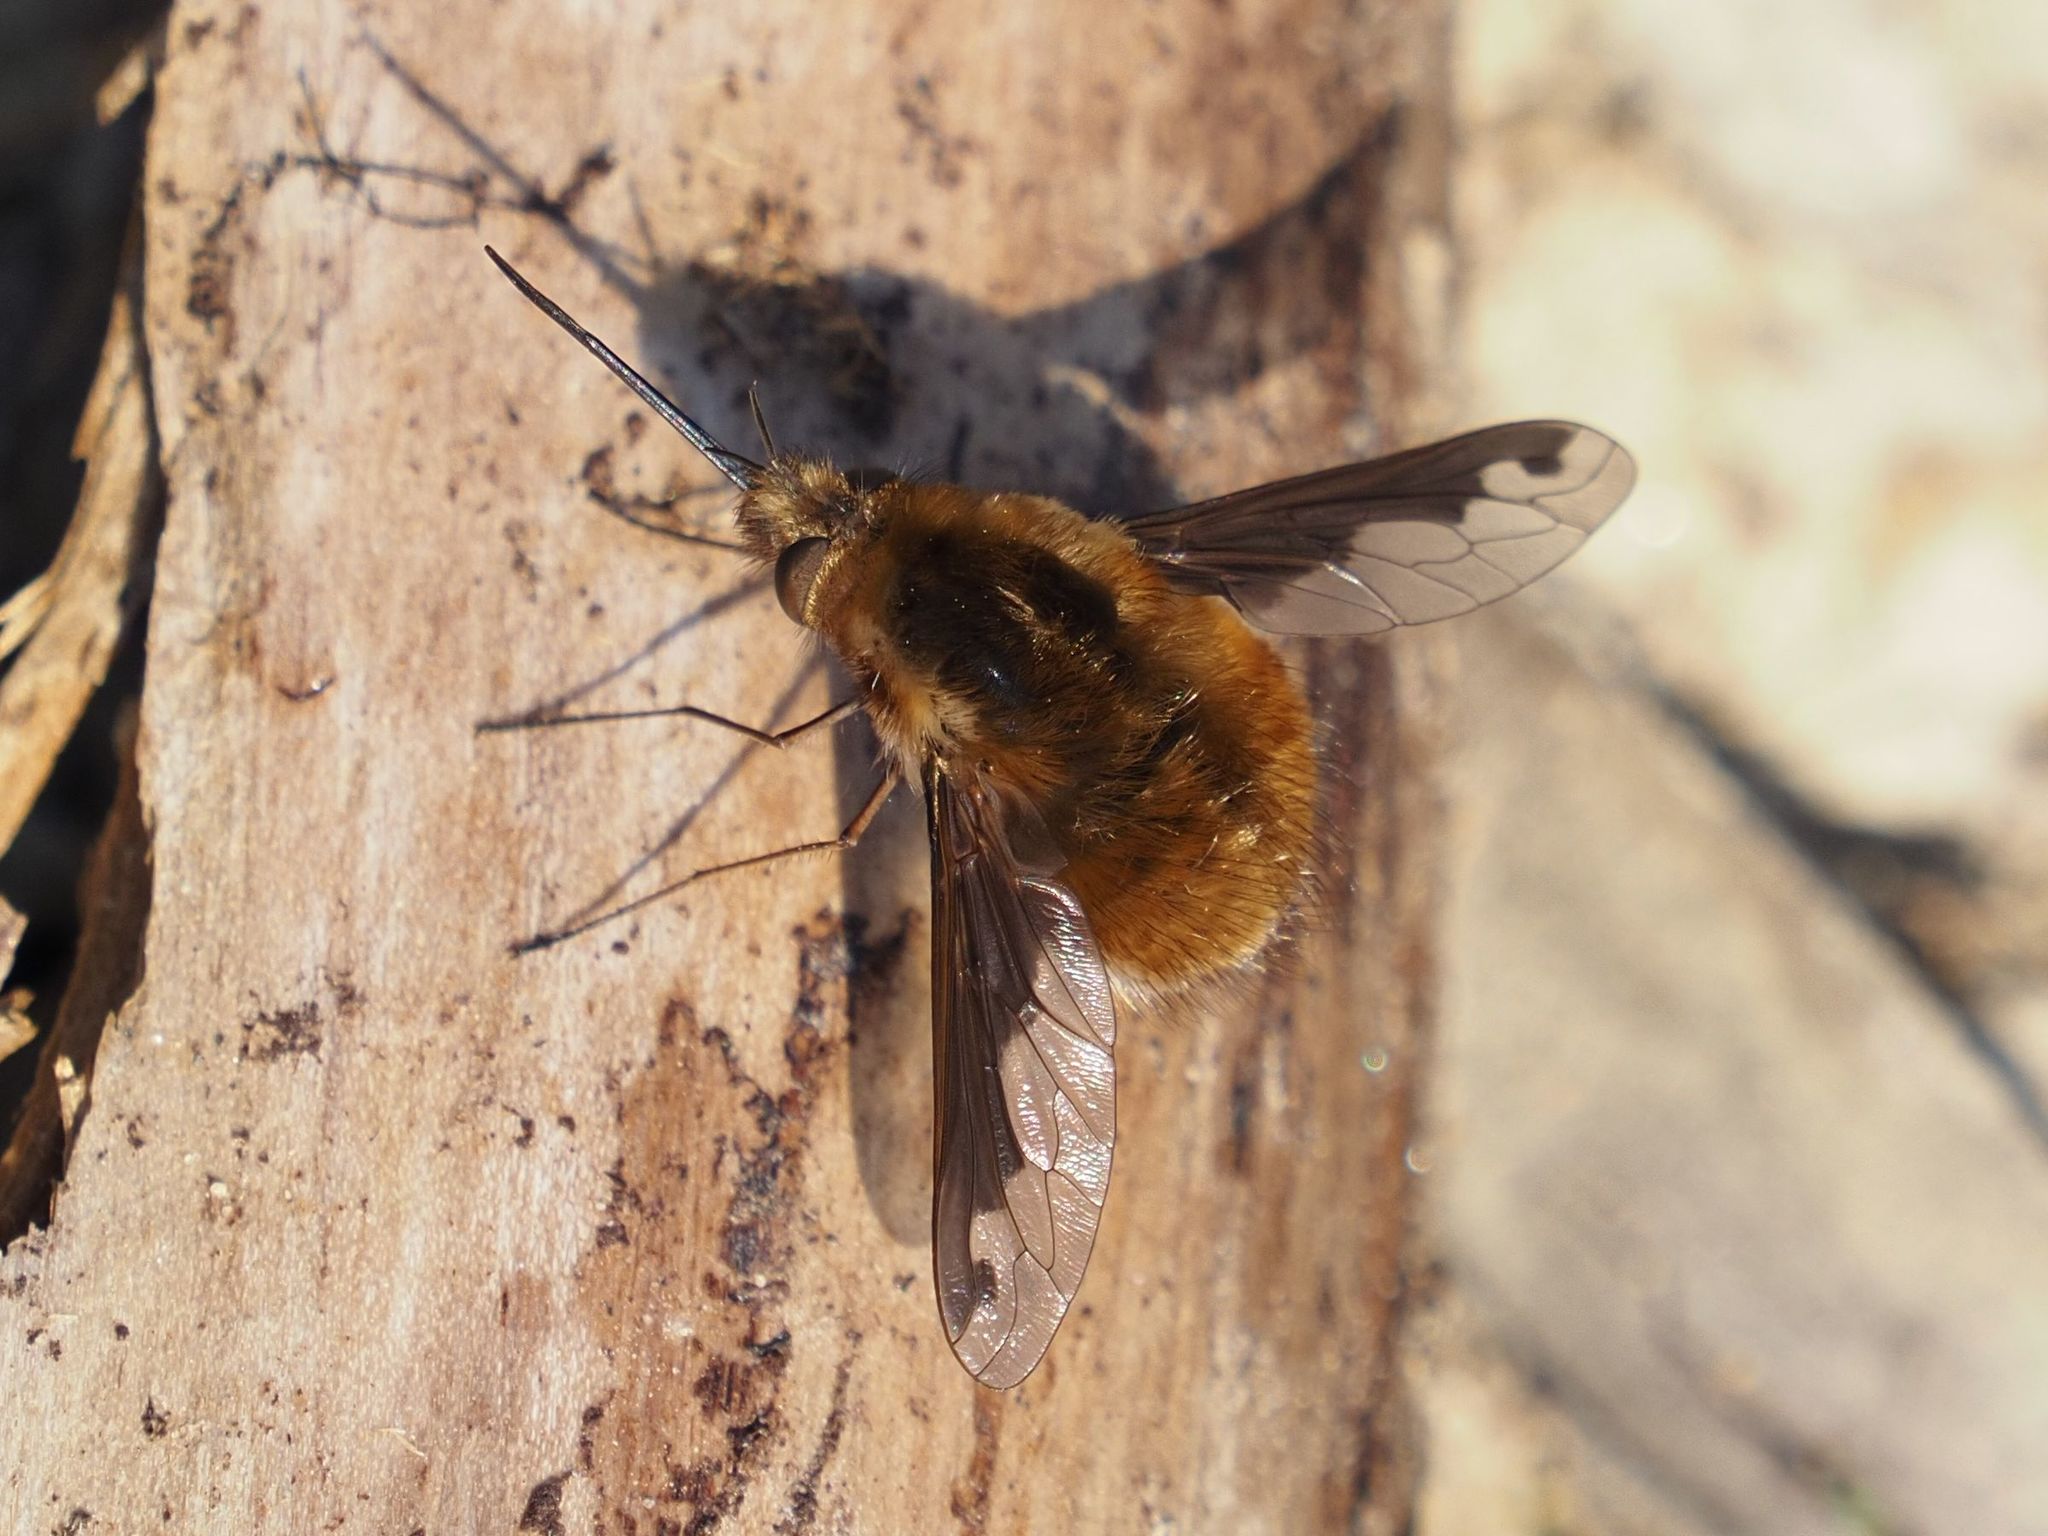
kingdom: Animalia
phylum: Arthropoda
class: Insecta
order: Diptera
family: Bombyliidae
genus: Bombylius
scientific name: Bombylius major
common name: Bee fly
